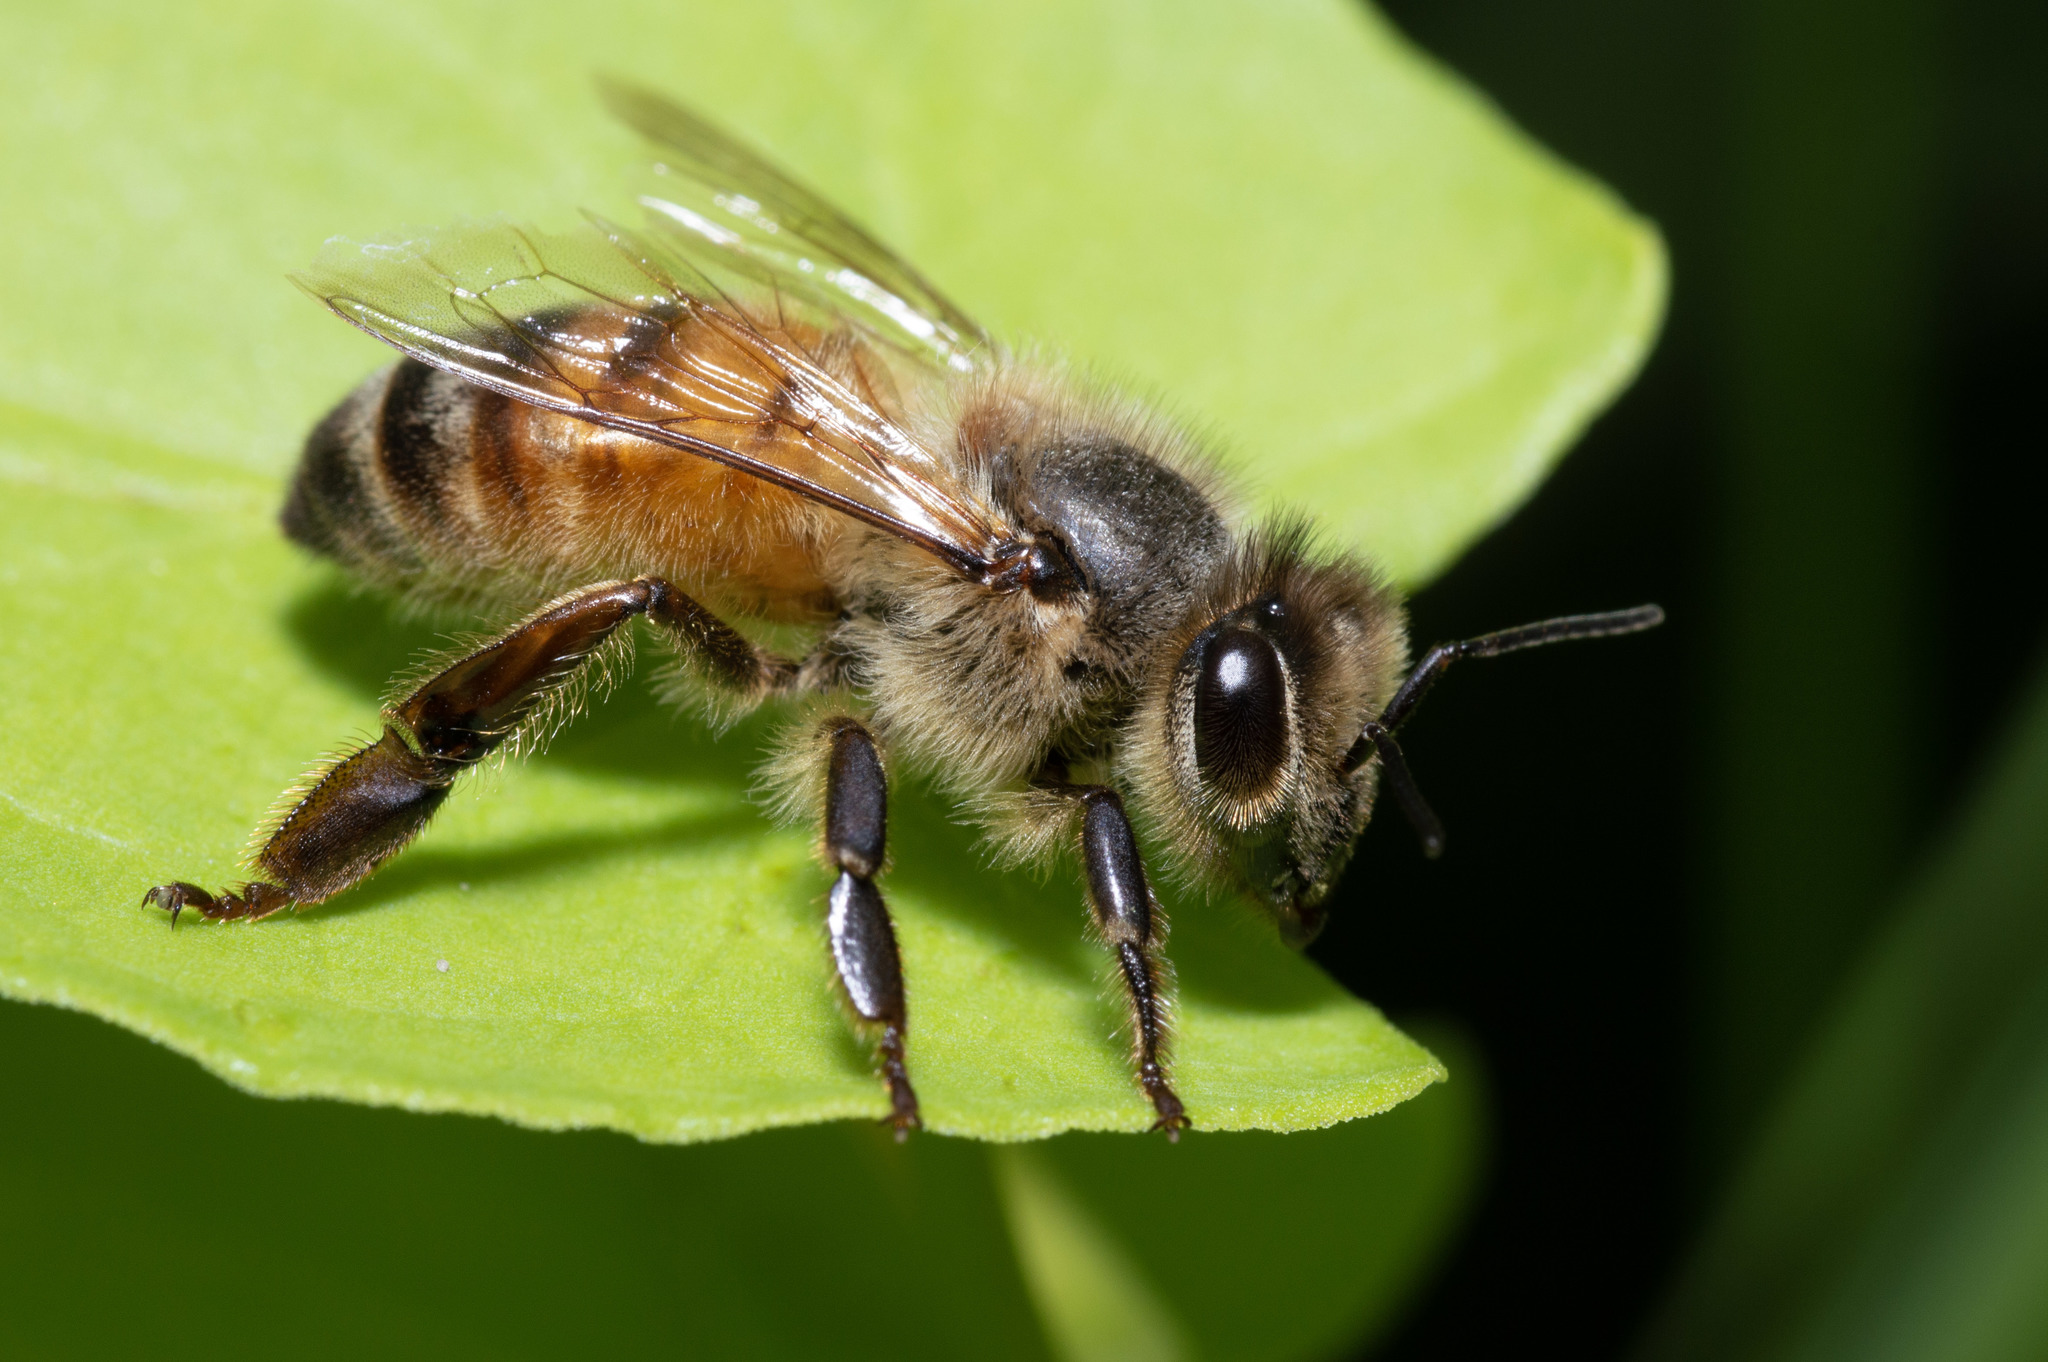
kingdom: Animalia
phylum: Arthropoda
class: Insecta
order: Hymenoptera
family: Apidae
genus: Apis
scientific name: Apis mellifera
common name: Honey bee
